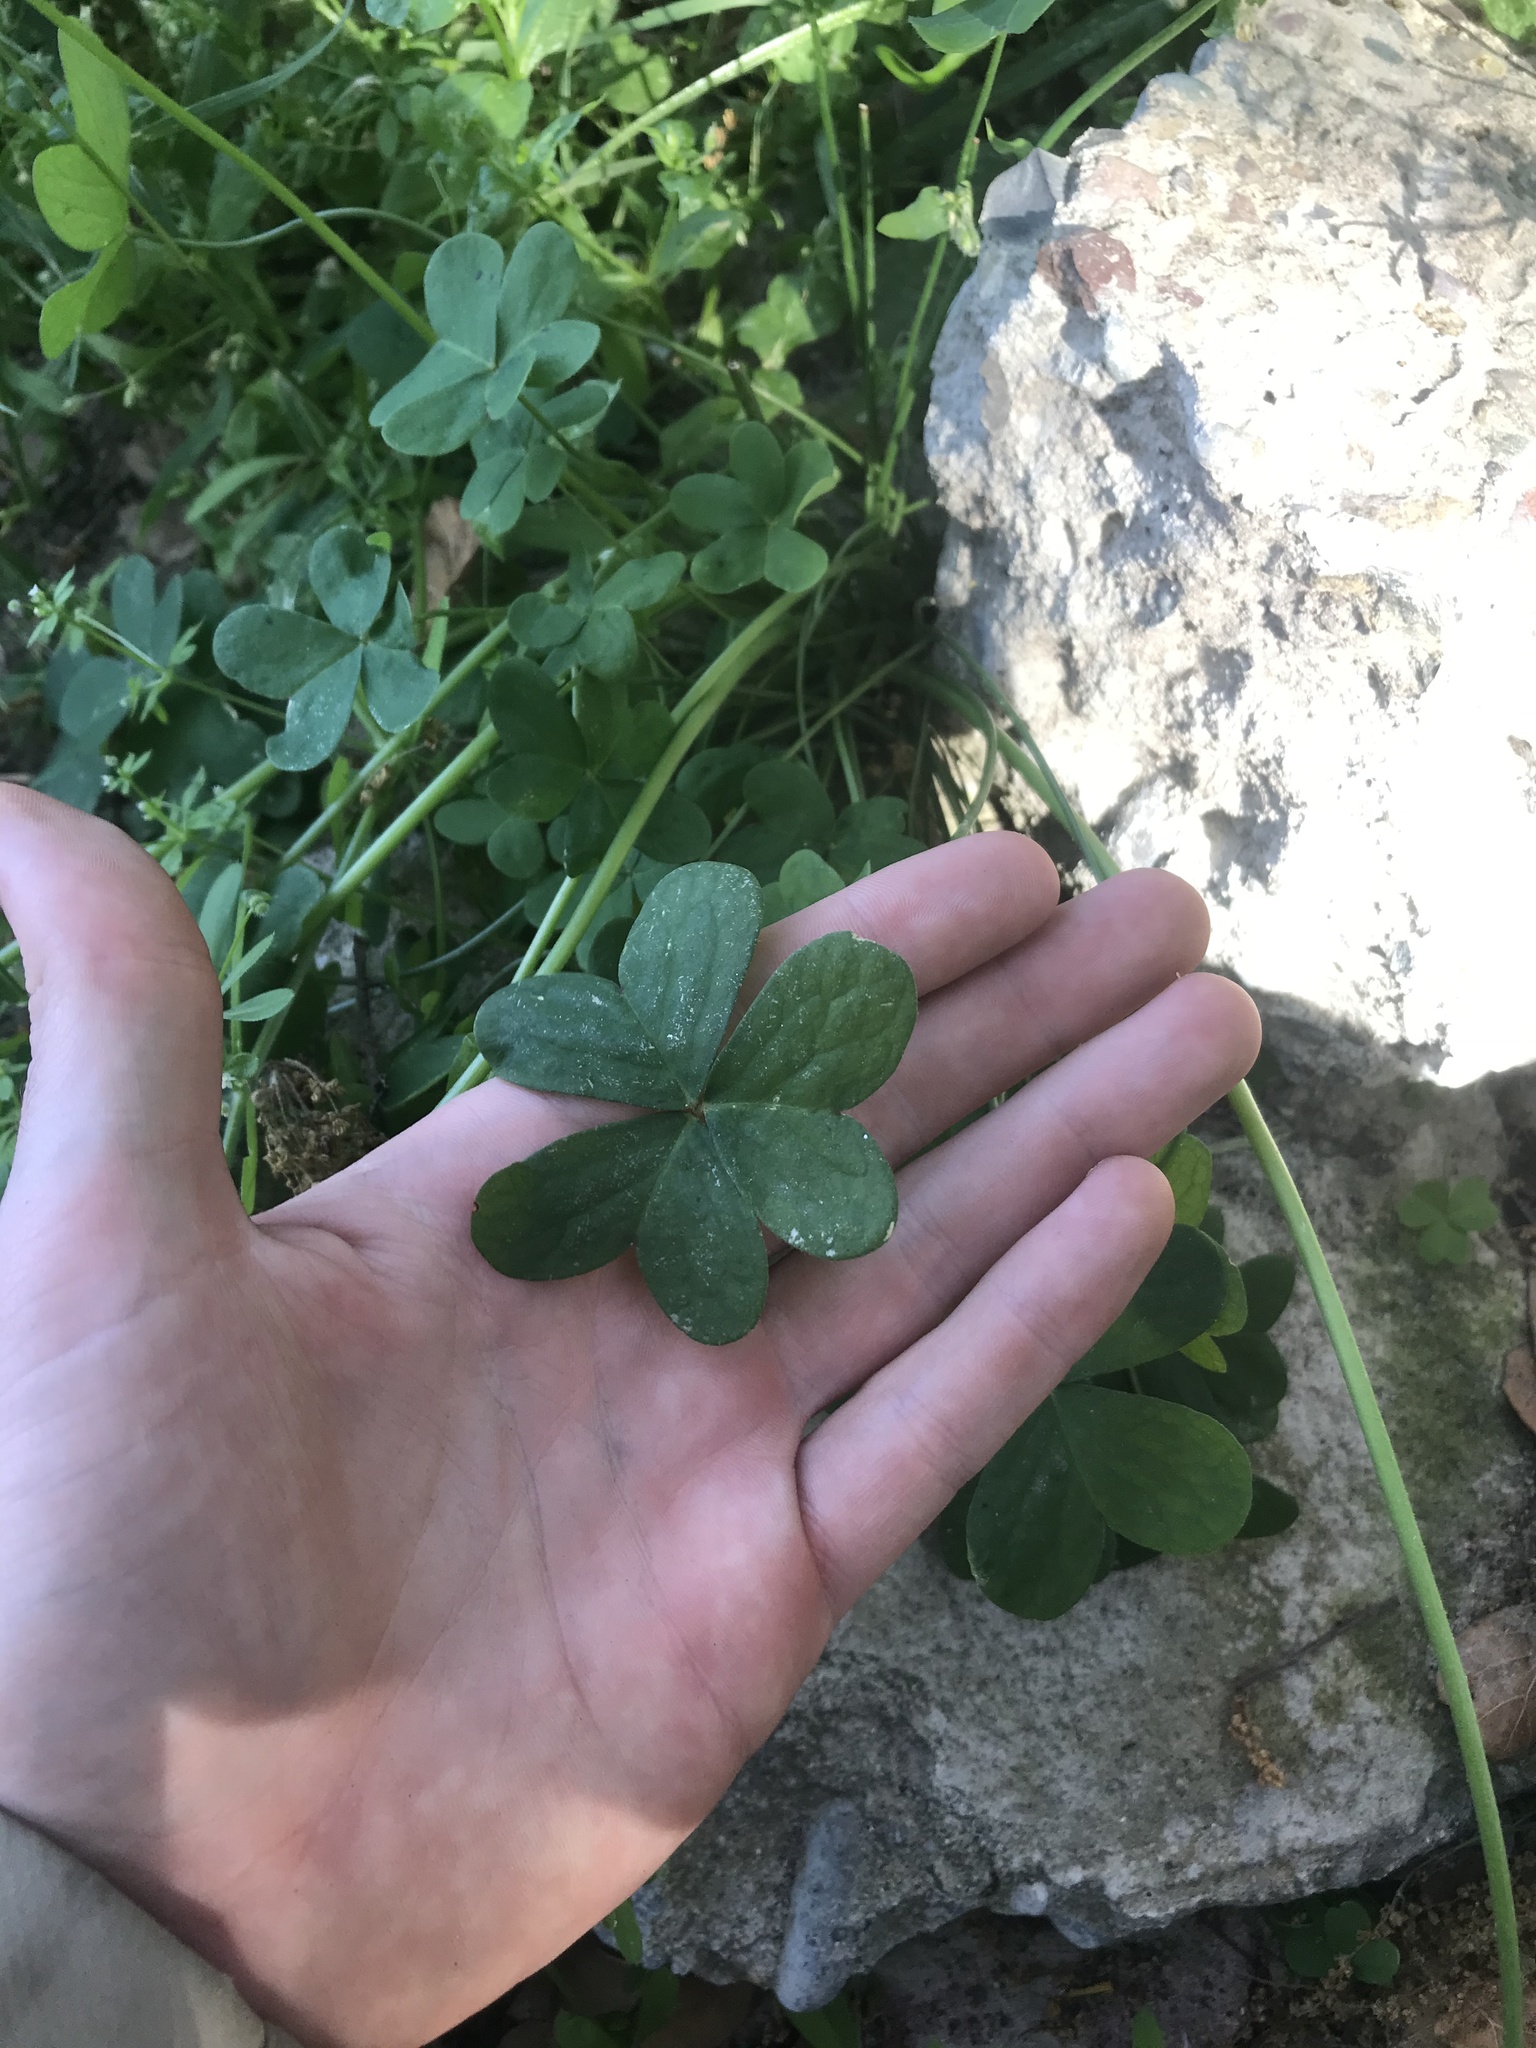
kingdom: Plantae
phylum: Tracheophyta
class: Magnoliopsida
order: Oxalidales
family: Oxalidaceae
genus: Oxalis
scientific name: Oxalis pes-caprae
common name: Bermuda-buttercup
